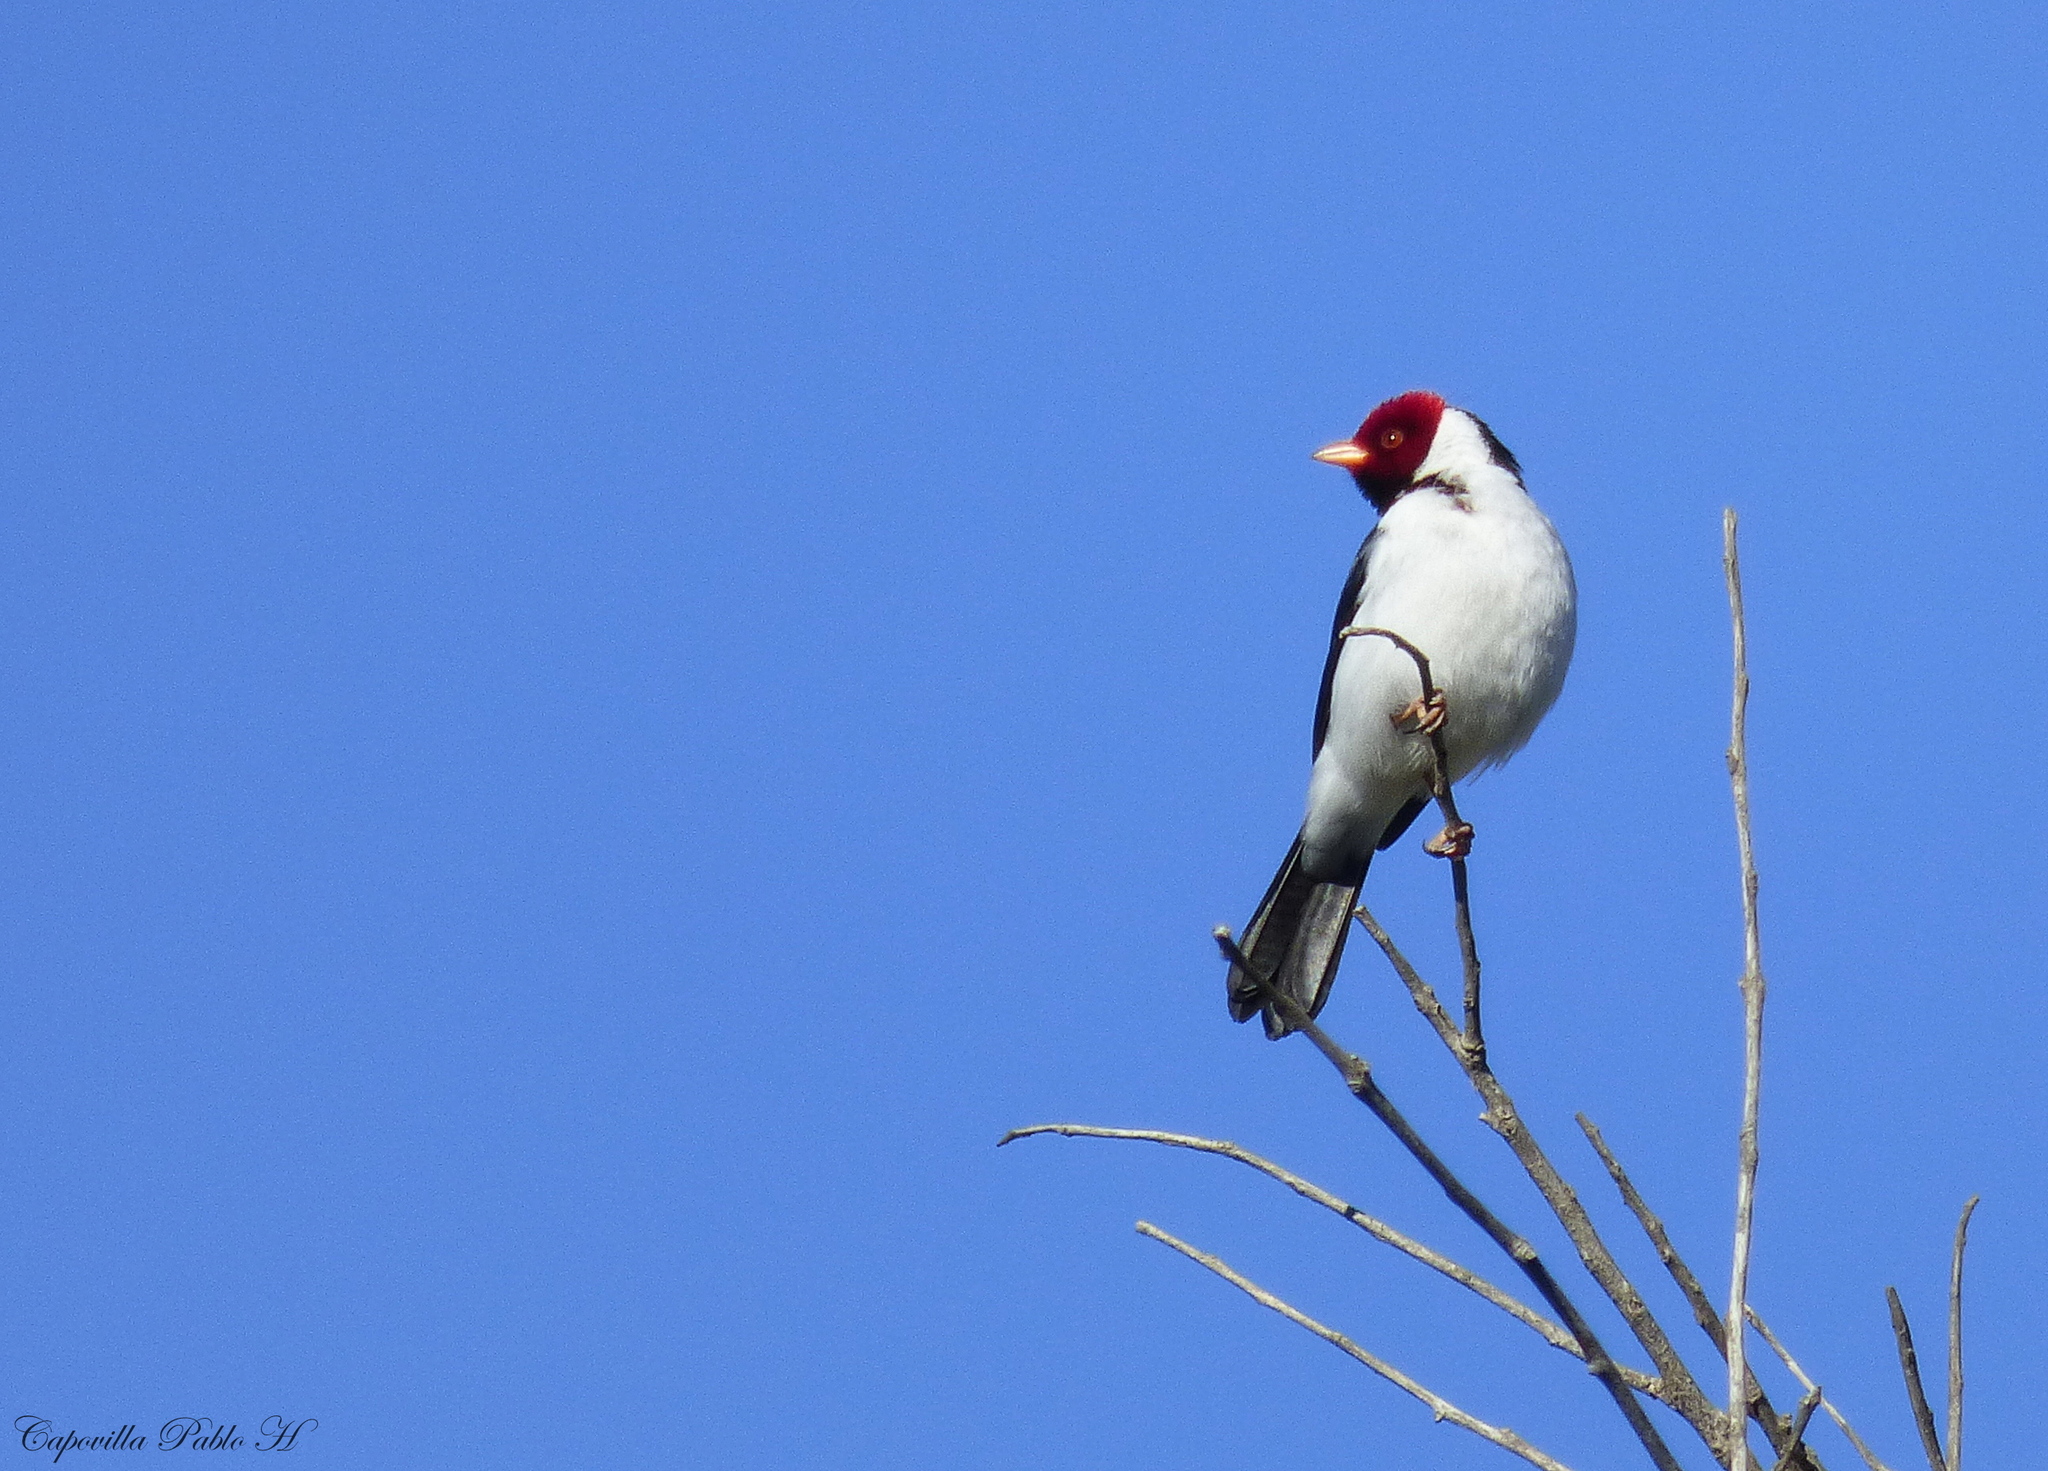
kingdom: Animalia
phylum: Chordata
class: Aves
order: Passeriformes
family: Thraupidae
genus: Paroaria
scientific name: Paroaria capitata
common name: Yellow-billed cardinal
